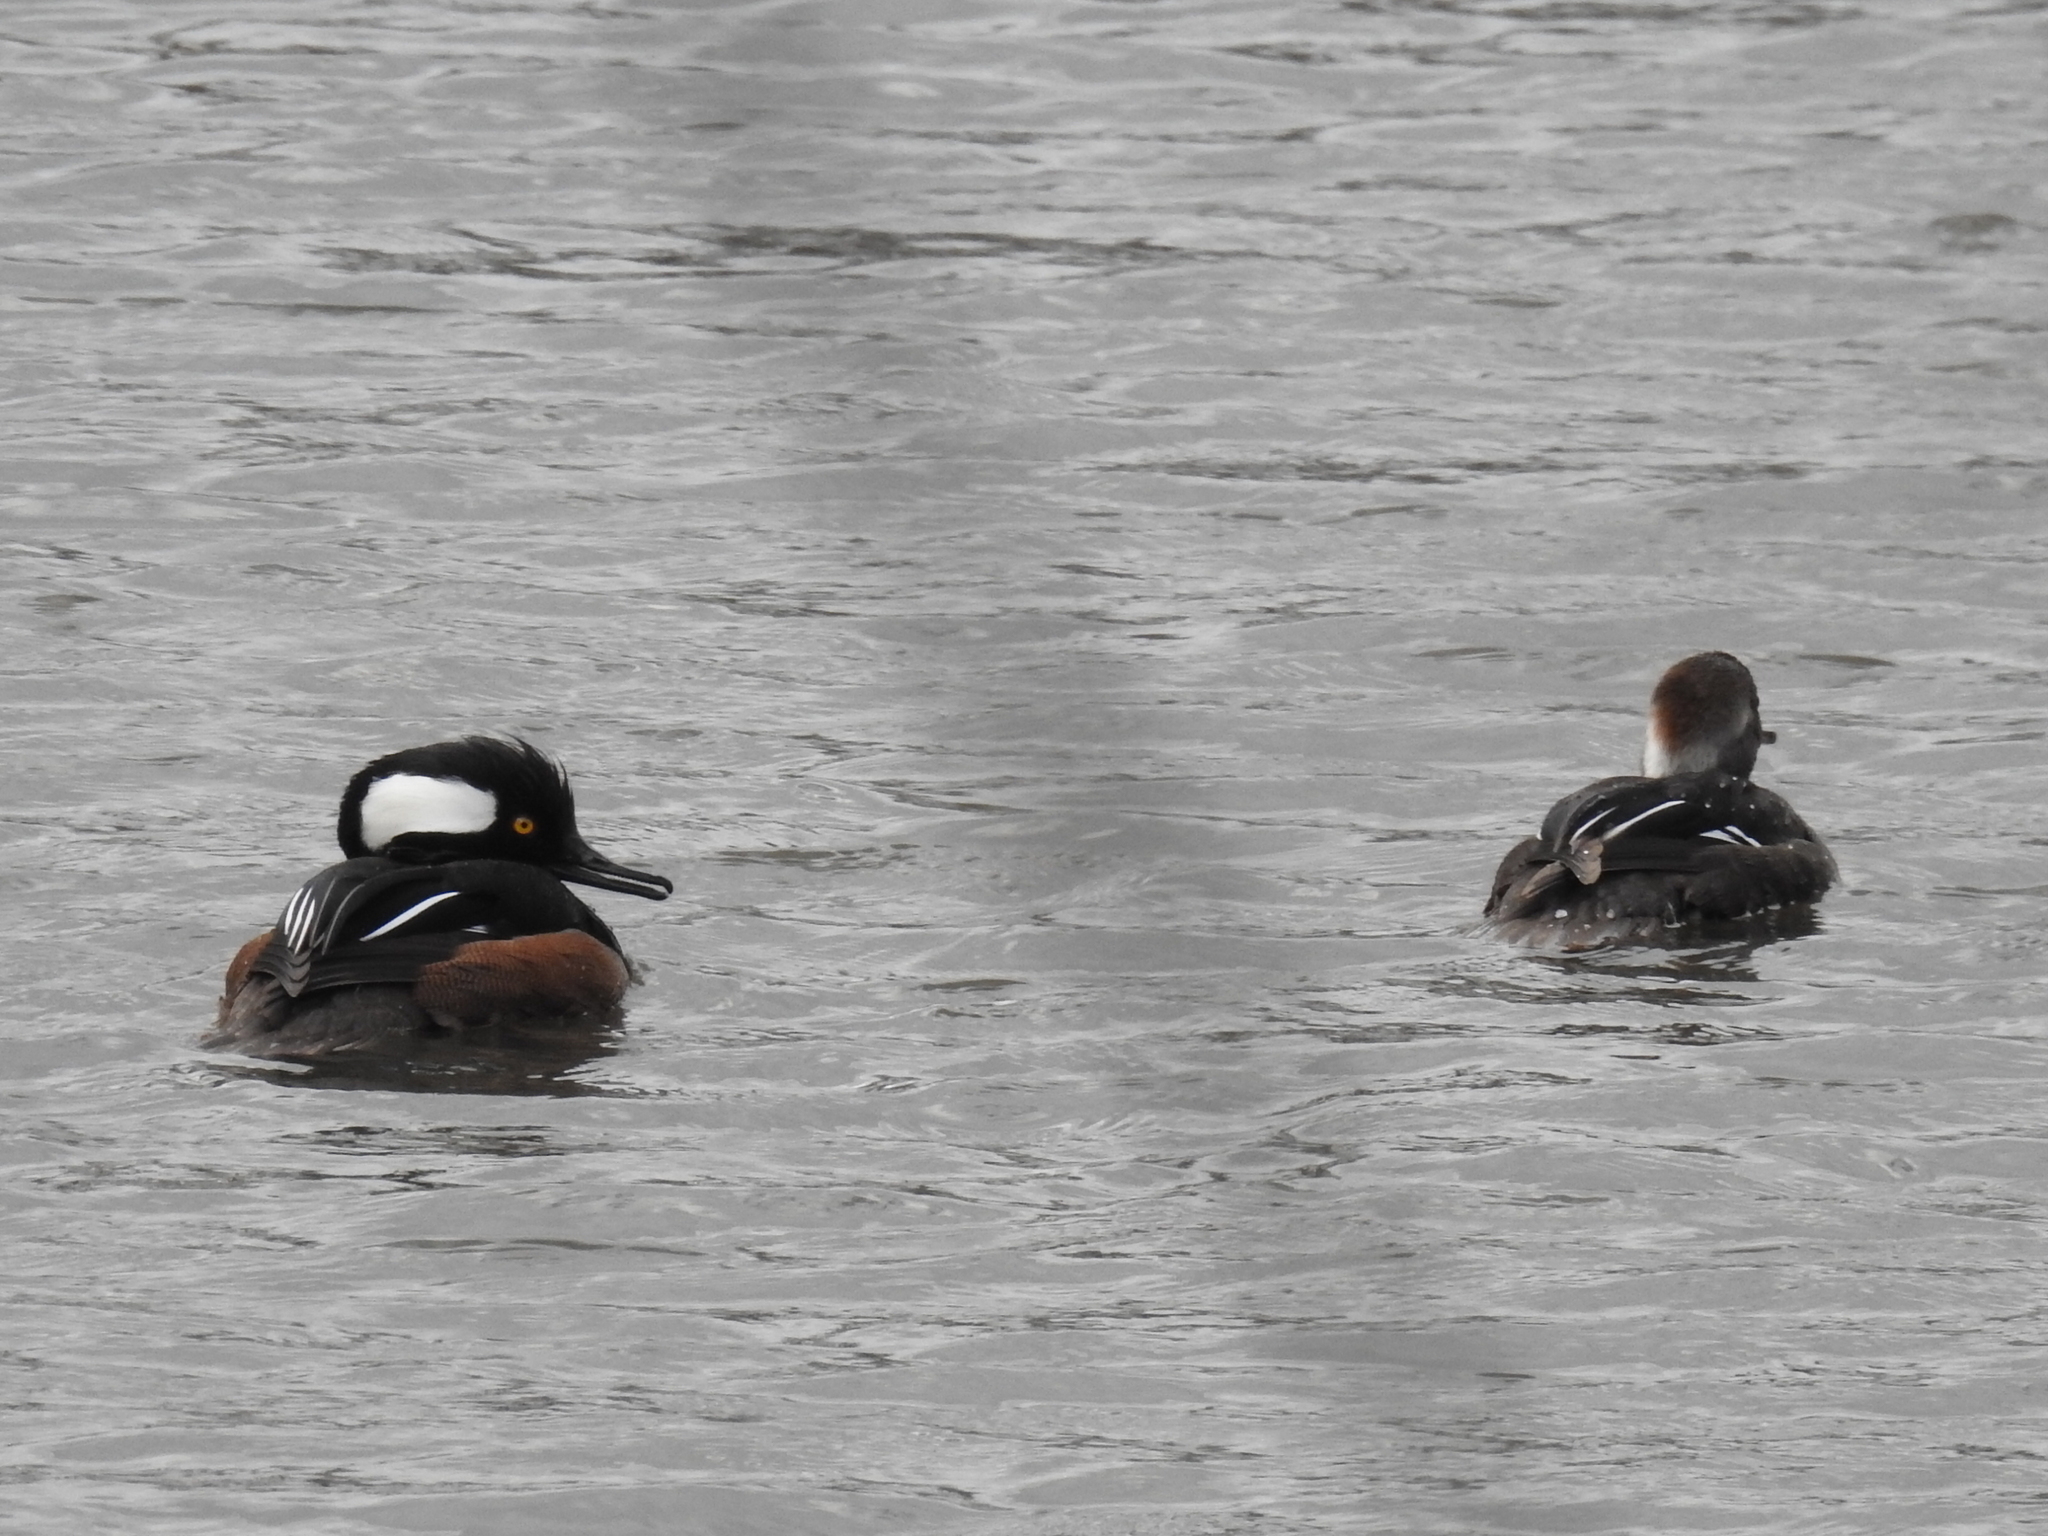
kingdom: Animalia
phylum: Chordata
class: Aves
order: Anseriformes
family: Anatidae
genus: Lophodytes
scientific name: Lophodytes cucullatus
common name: Hooded merganser
